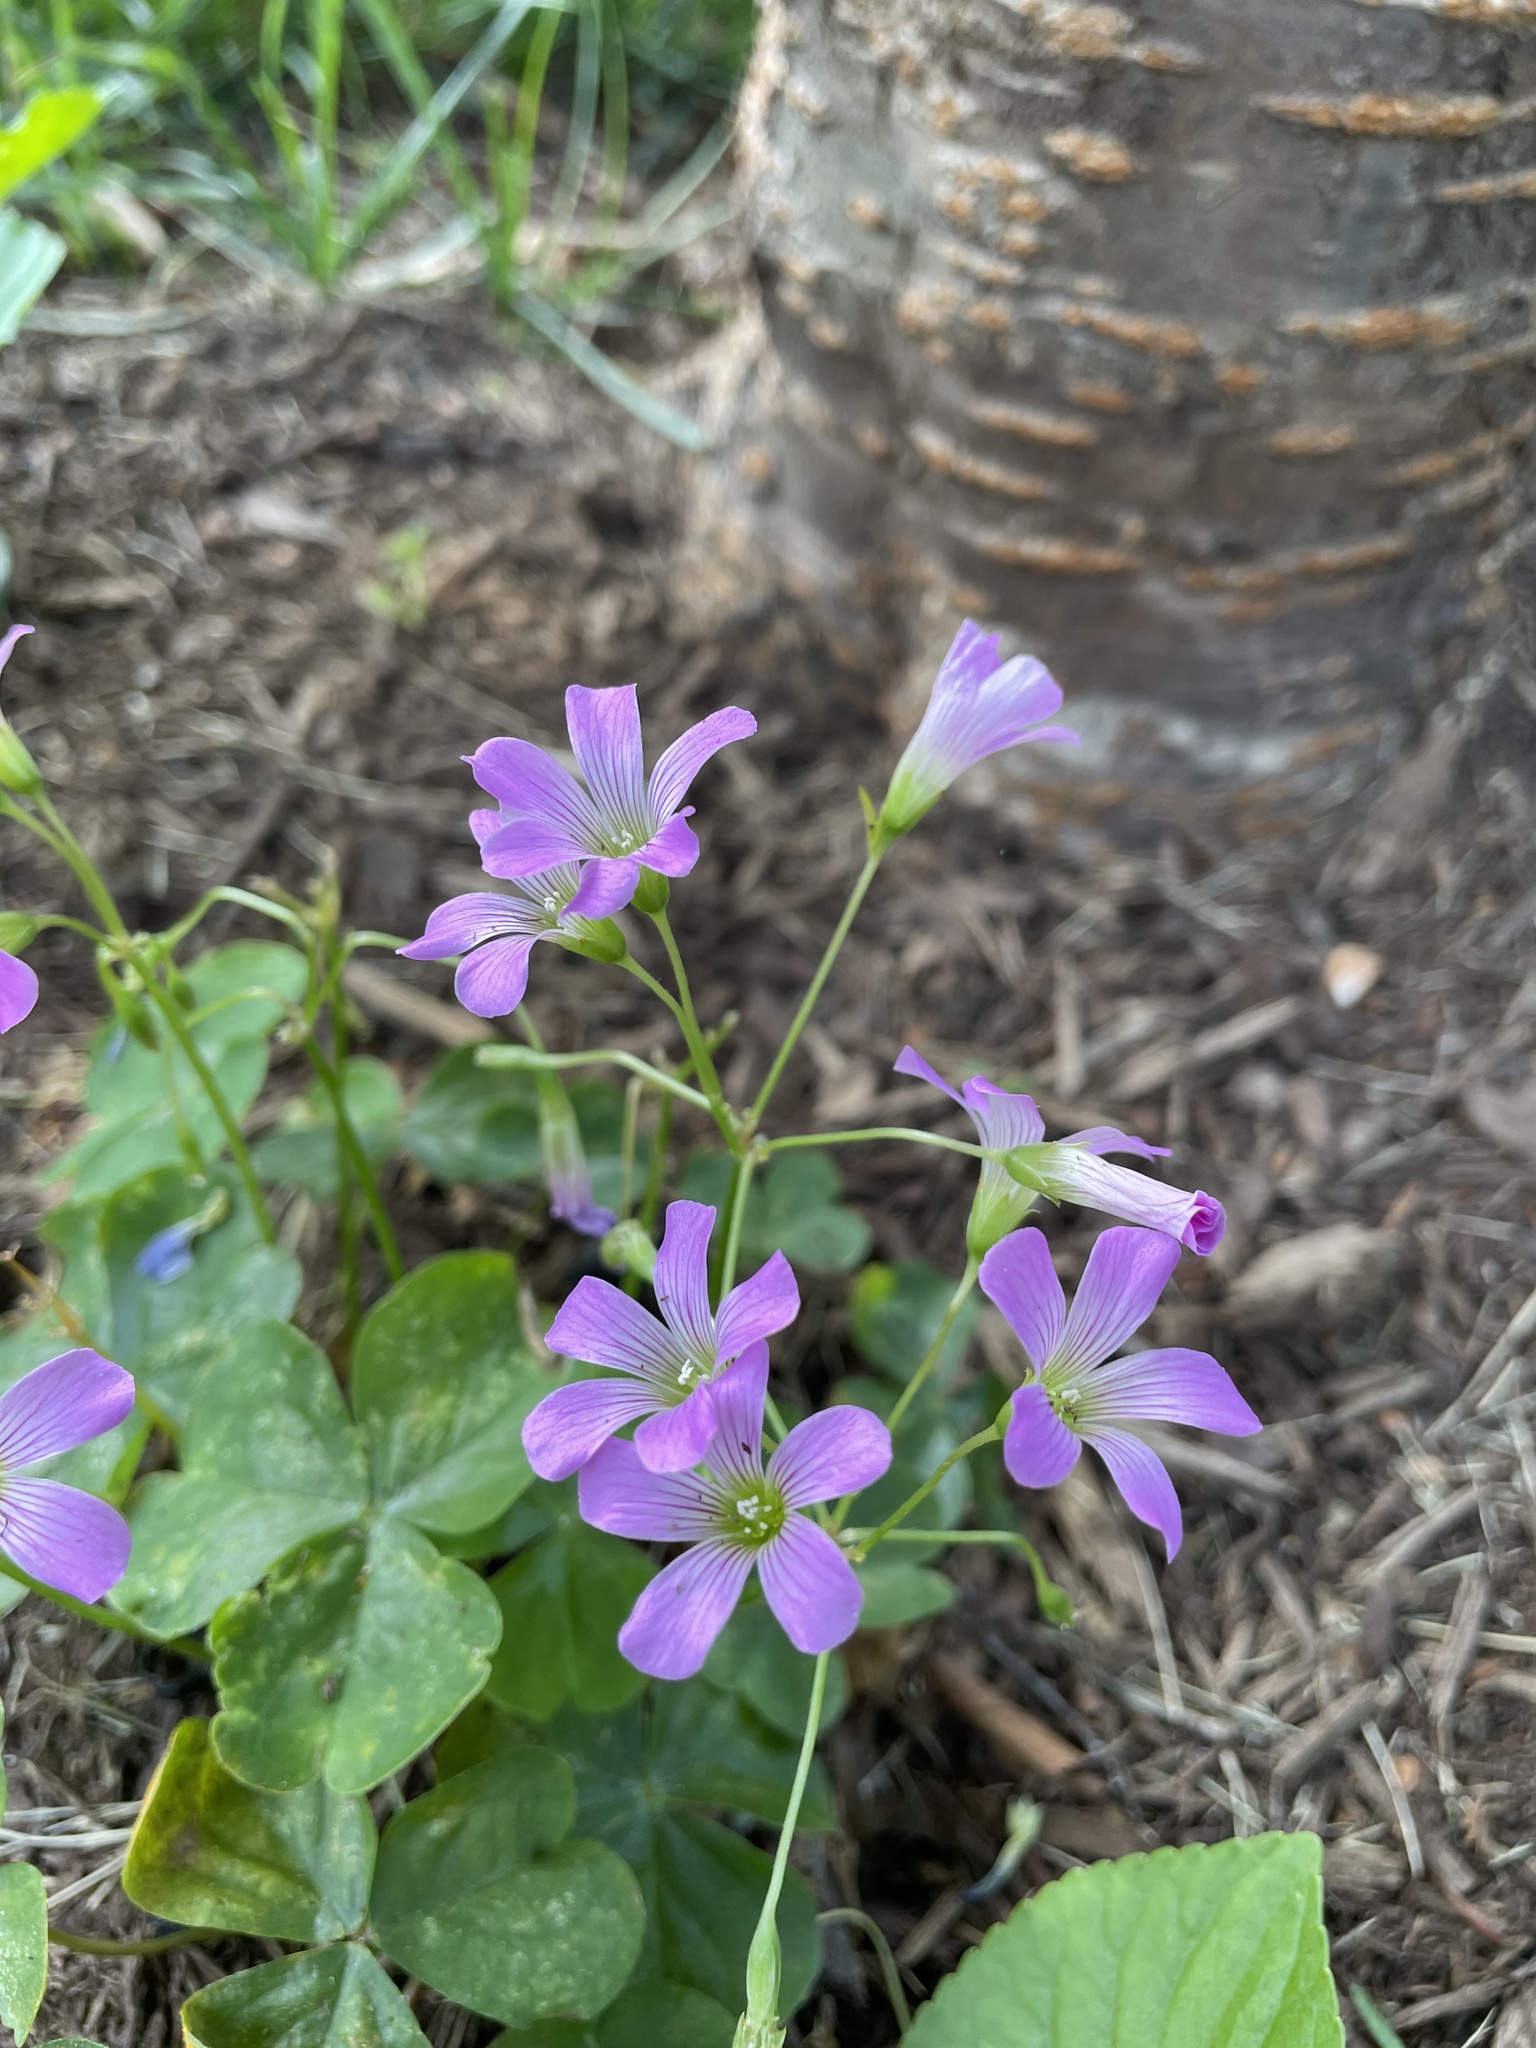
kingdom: Plantae
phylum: Tracheophyta
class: Magnoliopsida
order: Oxalidales
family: Oxalidaceae
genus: Oxalis
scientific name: Oxalis debilis
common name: Large-flowered pink-sorrel
